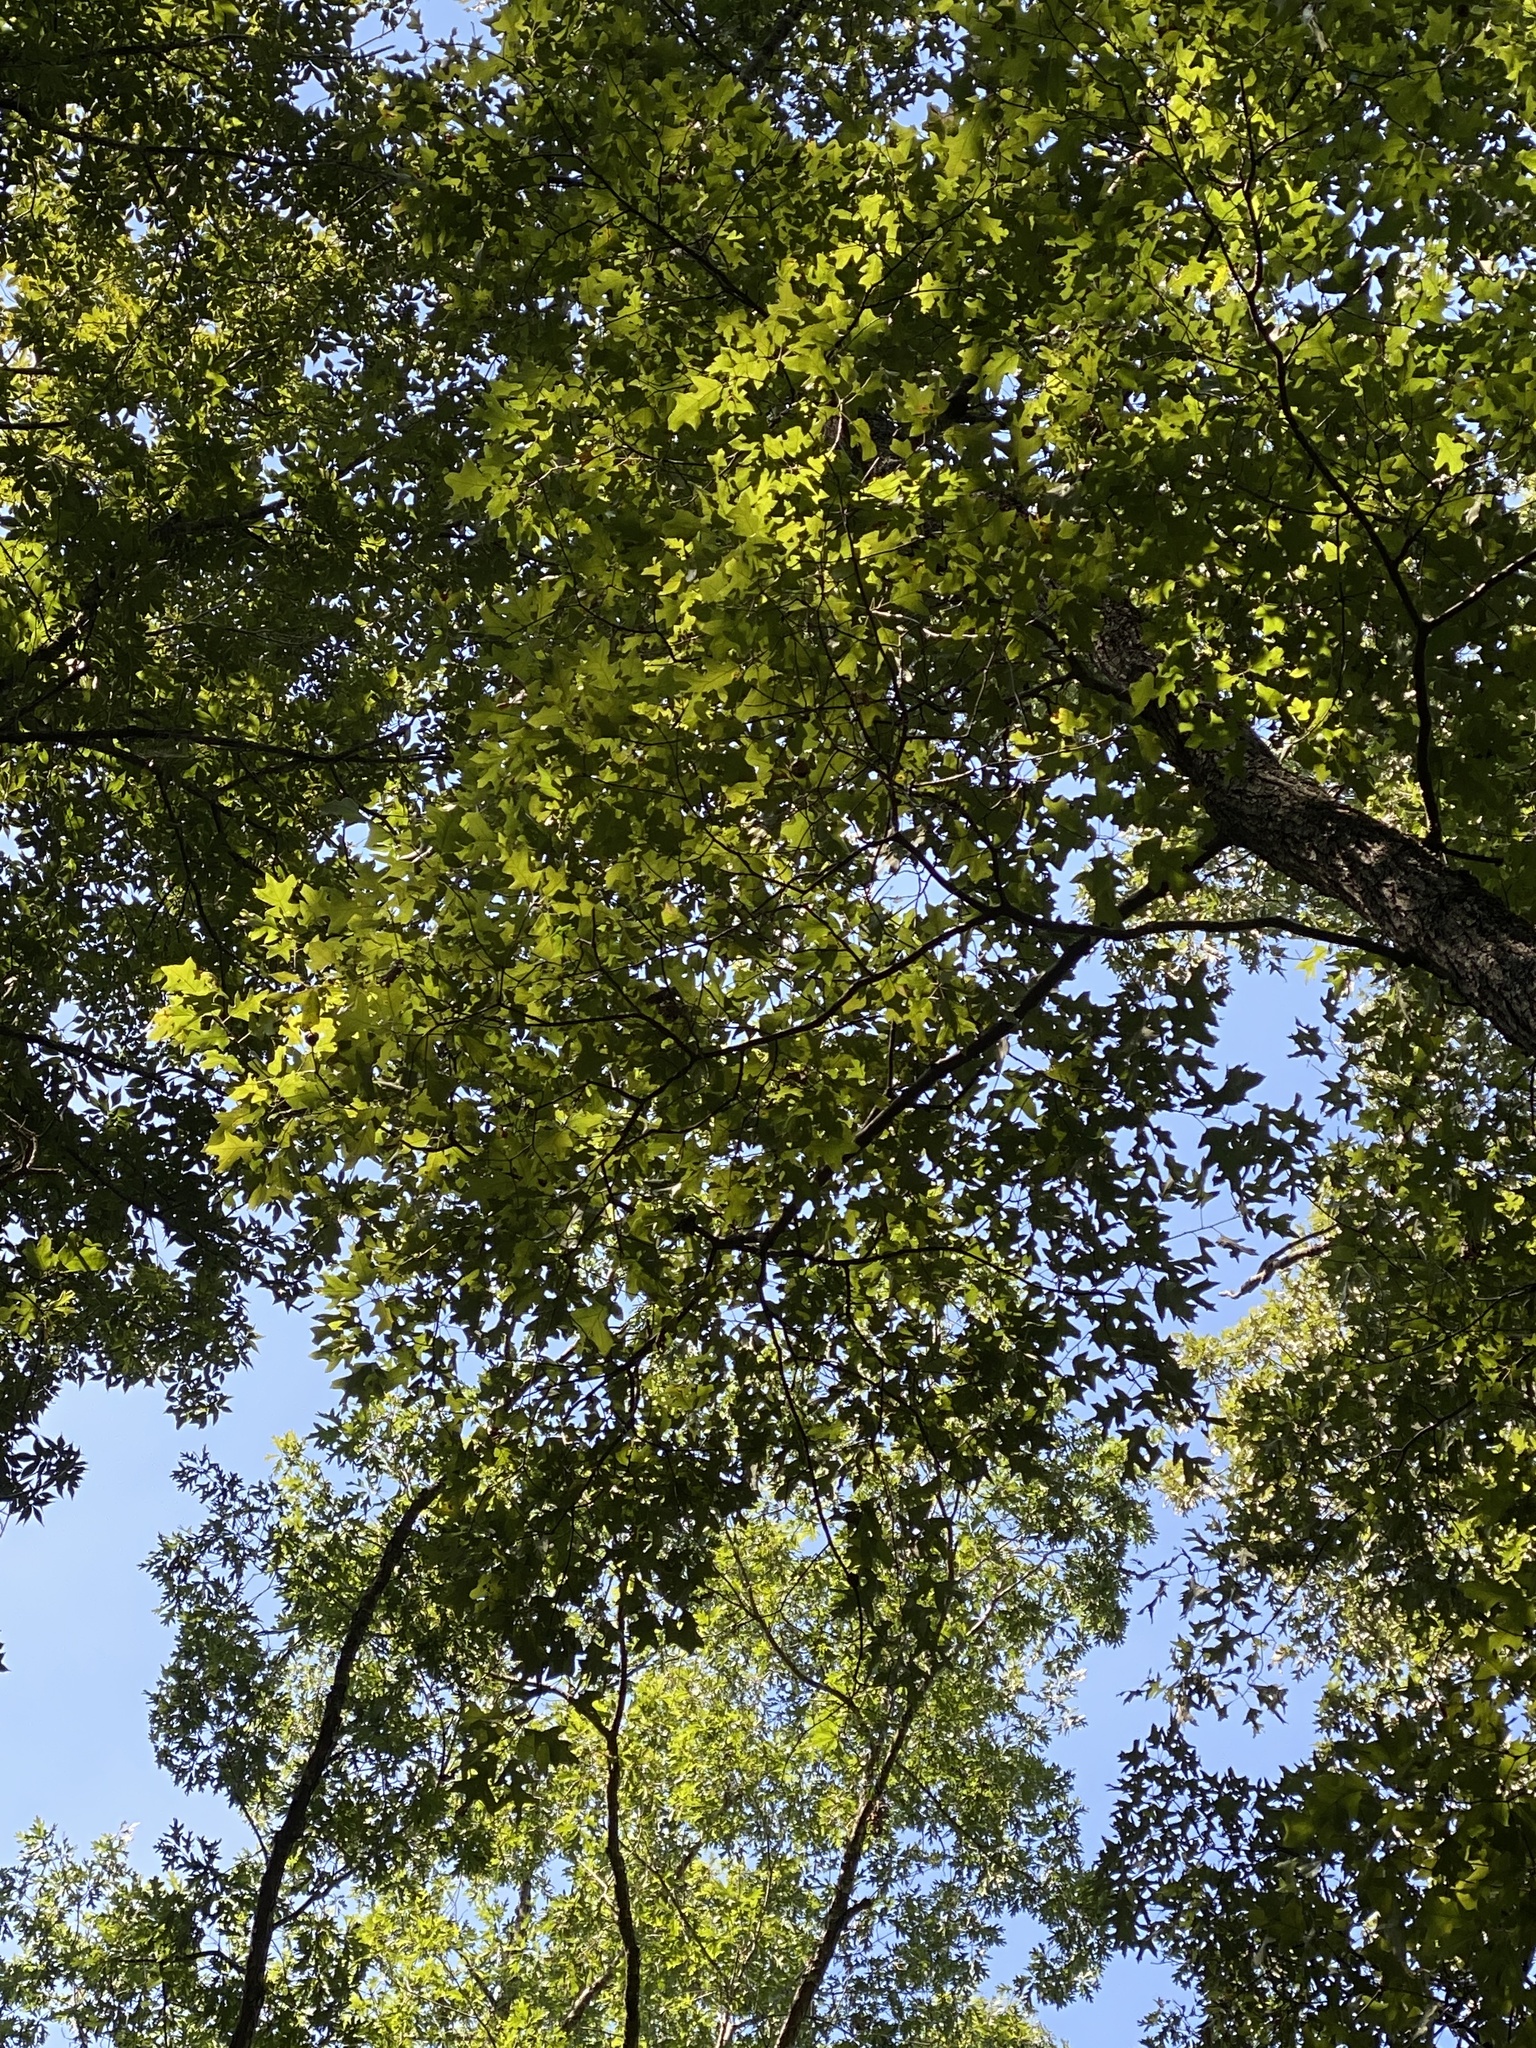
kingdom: Plantae
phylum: Tracheophyta
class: Magnoliopsida
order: Fagales
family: Fagaceae
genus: Quercus
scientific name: Quercus pagoda
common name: Cherrybark oak
